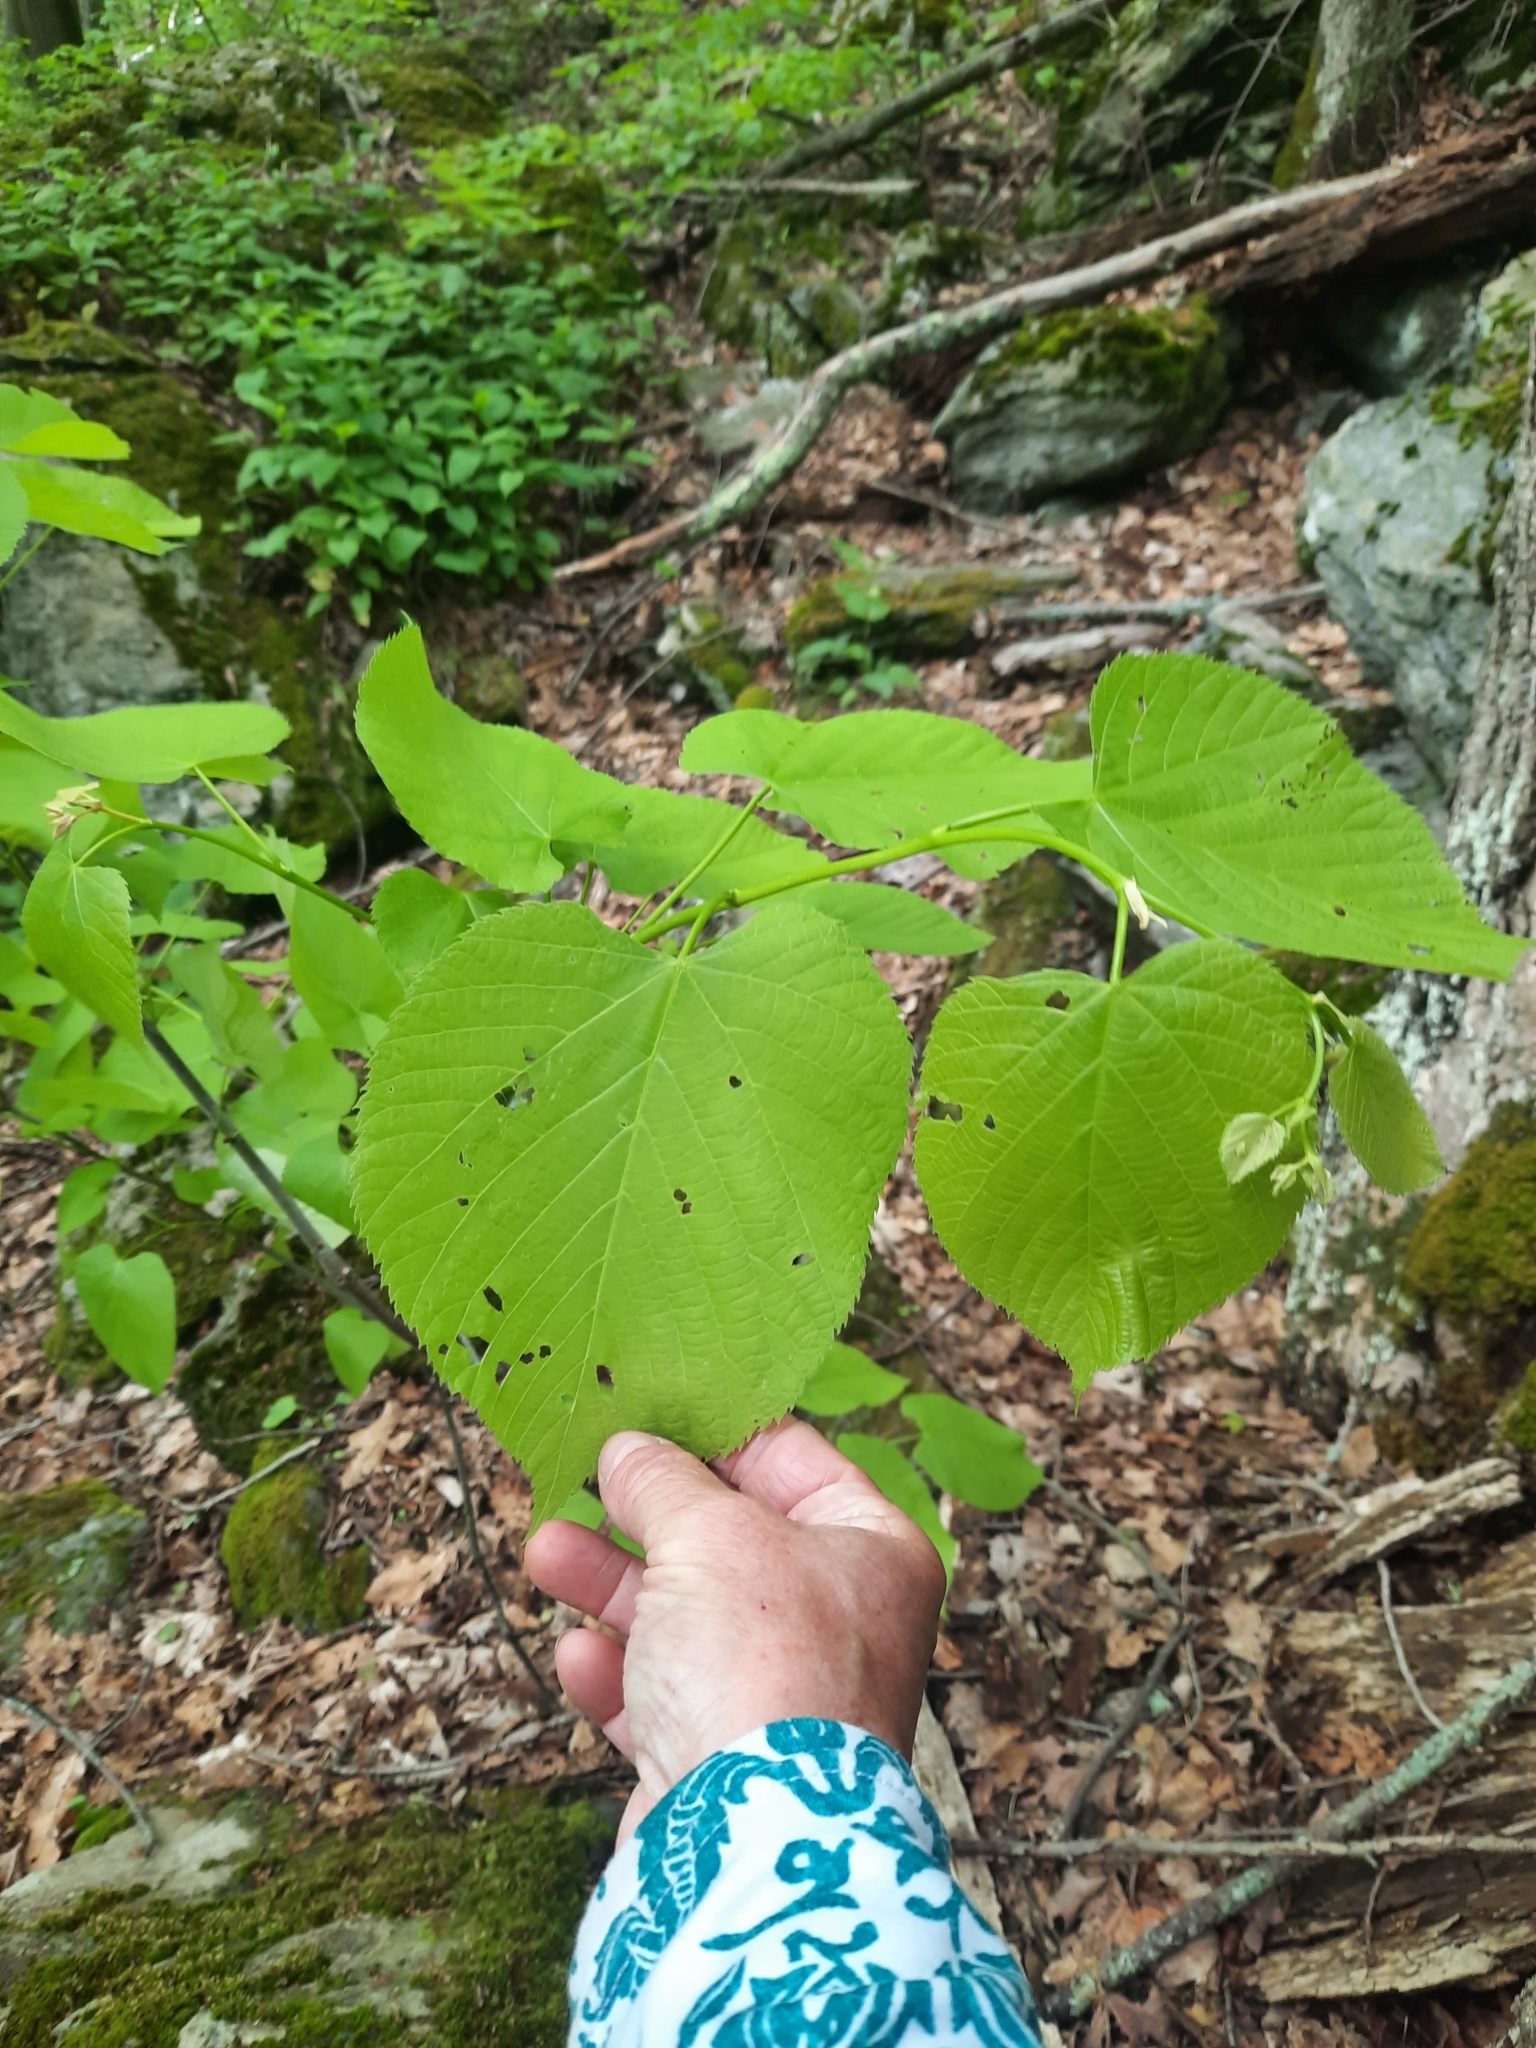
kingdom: Plantae
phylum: Tracheophyta
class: Magnoliopsida
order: Malvales
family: Malvaceae
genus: Tilia
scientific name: Tilia americana
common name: Basswood
